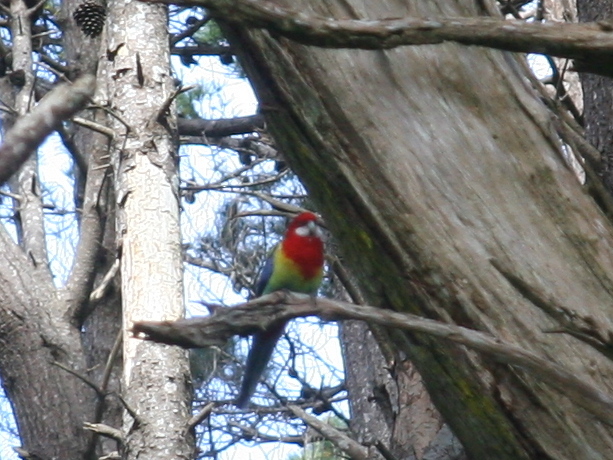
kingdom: Animalia
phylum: Chordata
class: Aves
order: Psittaciformes
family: Psittacidae
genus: Platycercus
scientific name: Platycercus eximius
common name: Eastern rosella
